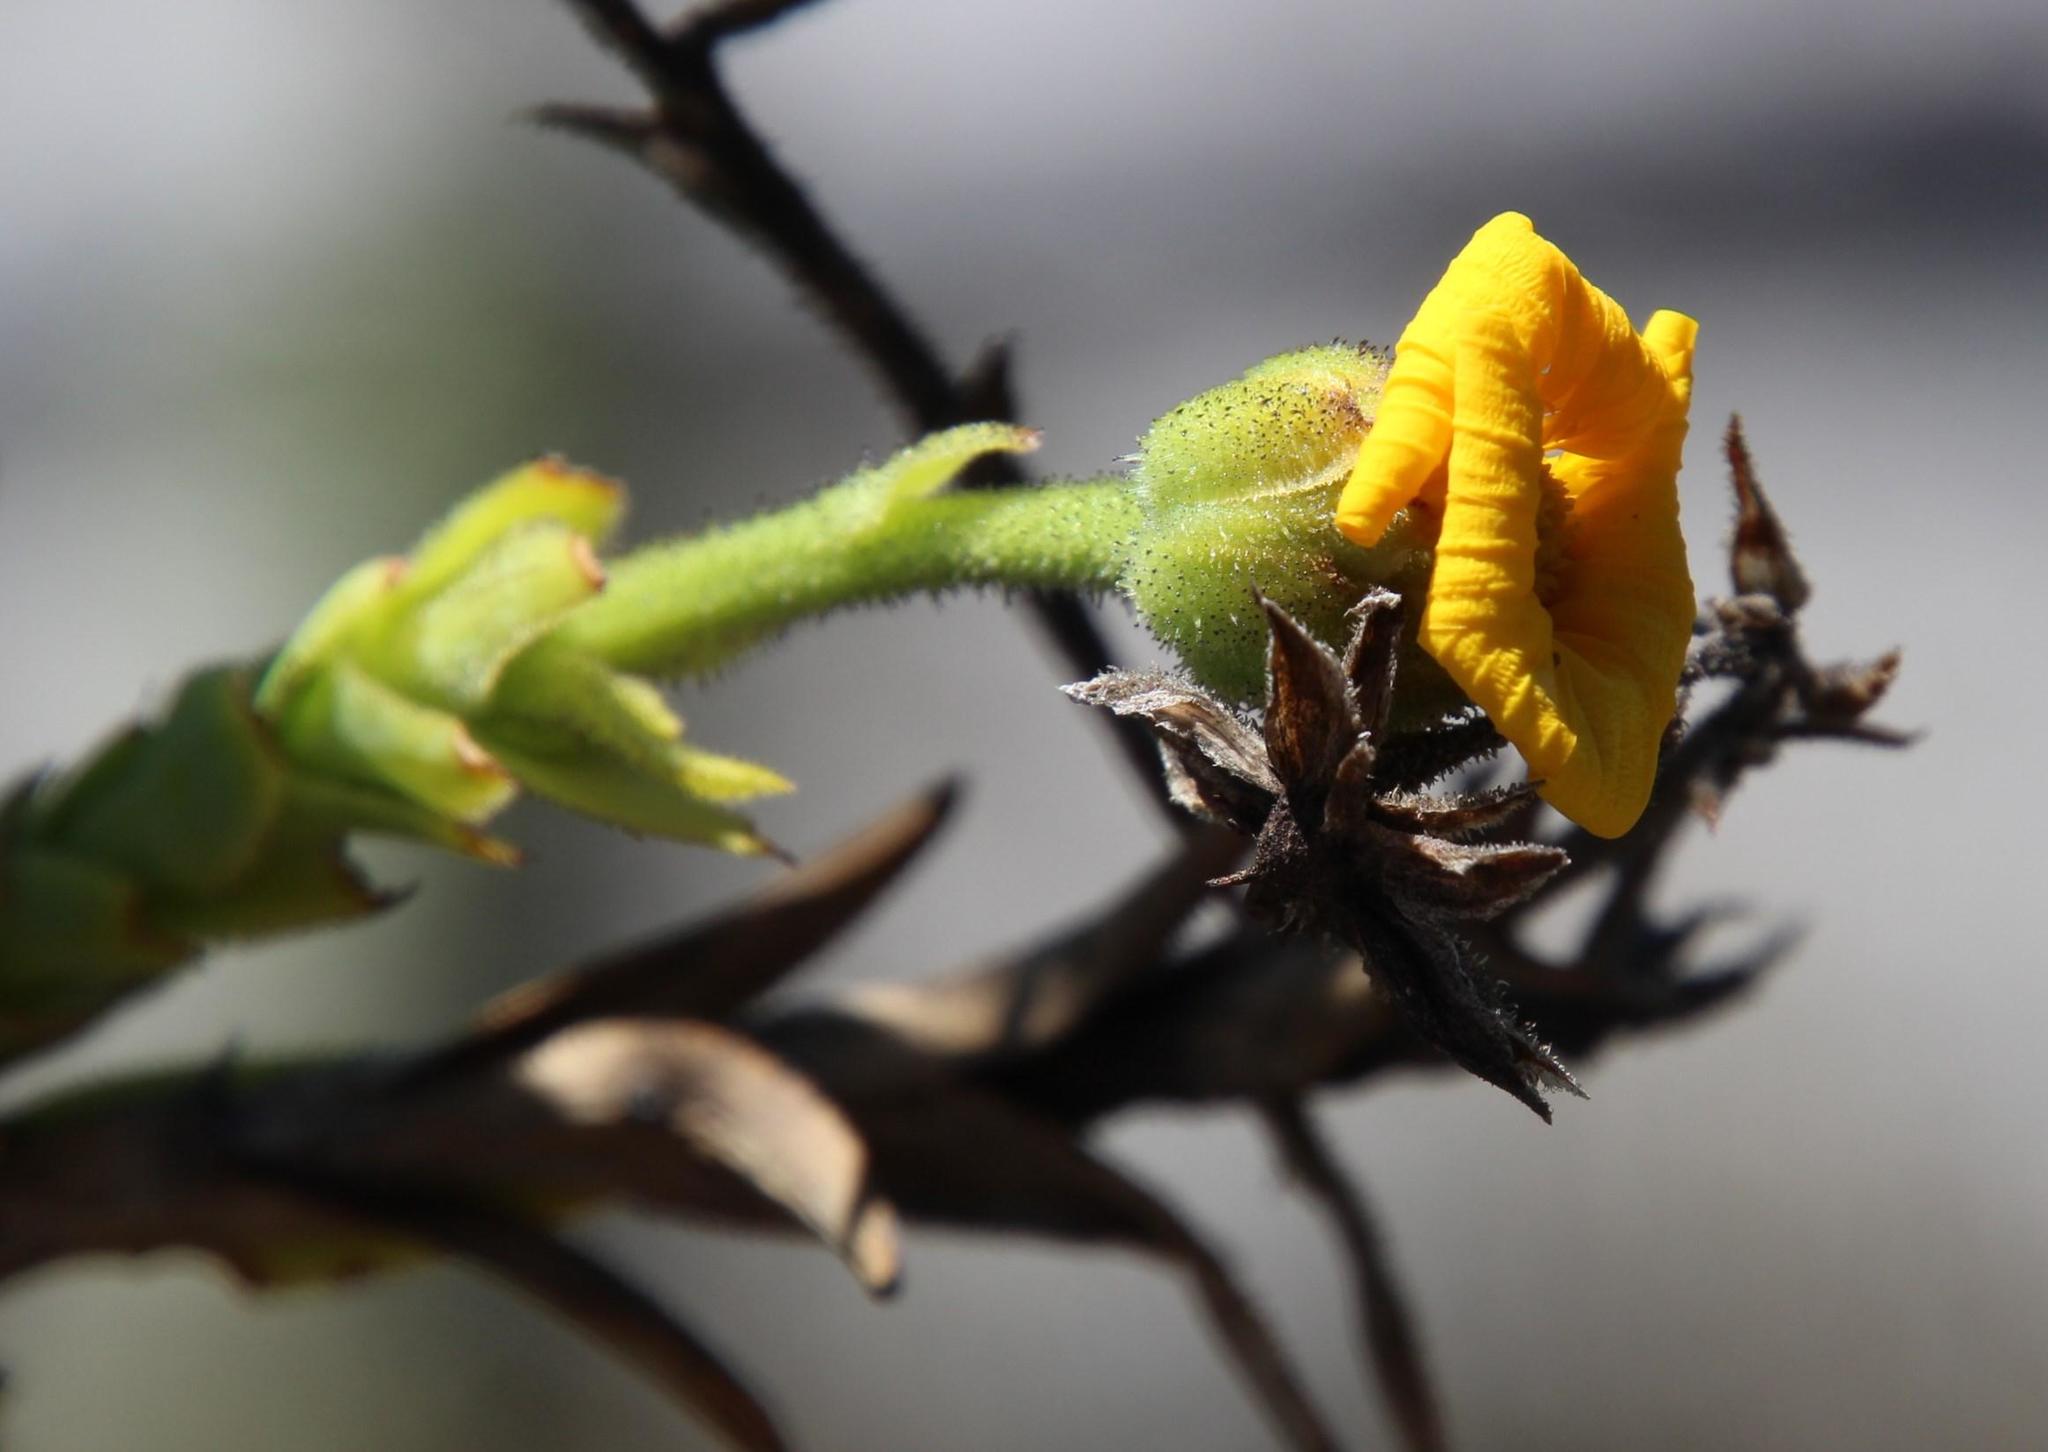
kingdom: Plantae
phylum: Tracheophyta
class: Magnoliopsida
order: Asterales
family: Asteraceae
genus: Osteospermum
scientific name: Osteospermum corymbosum
